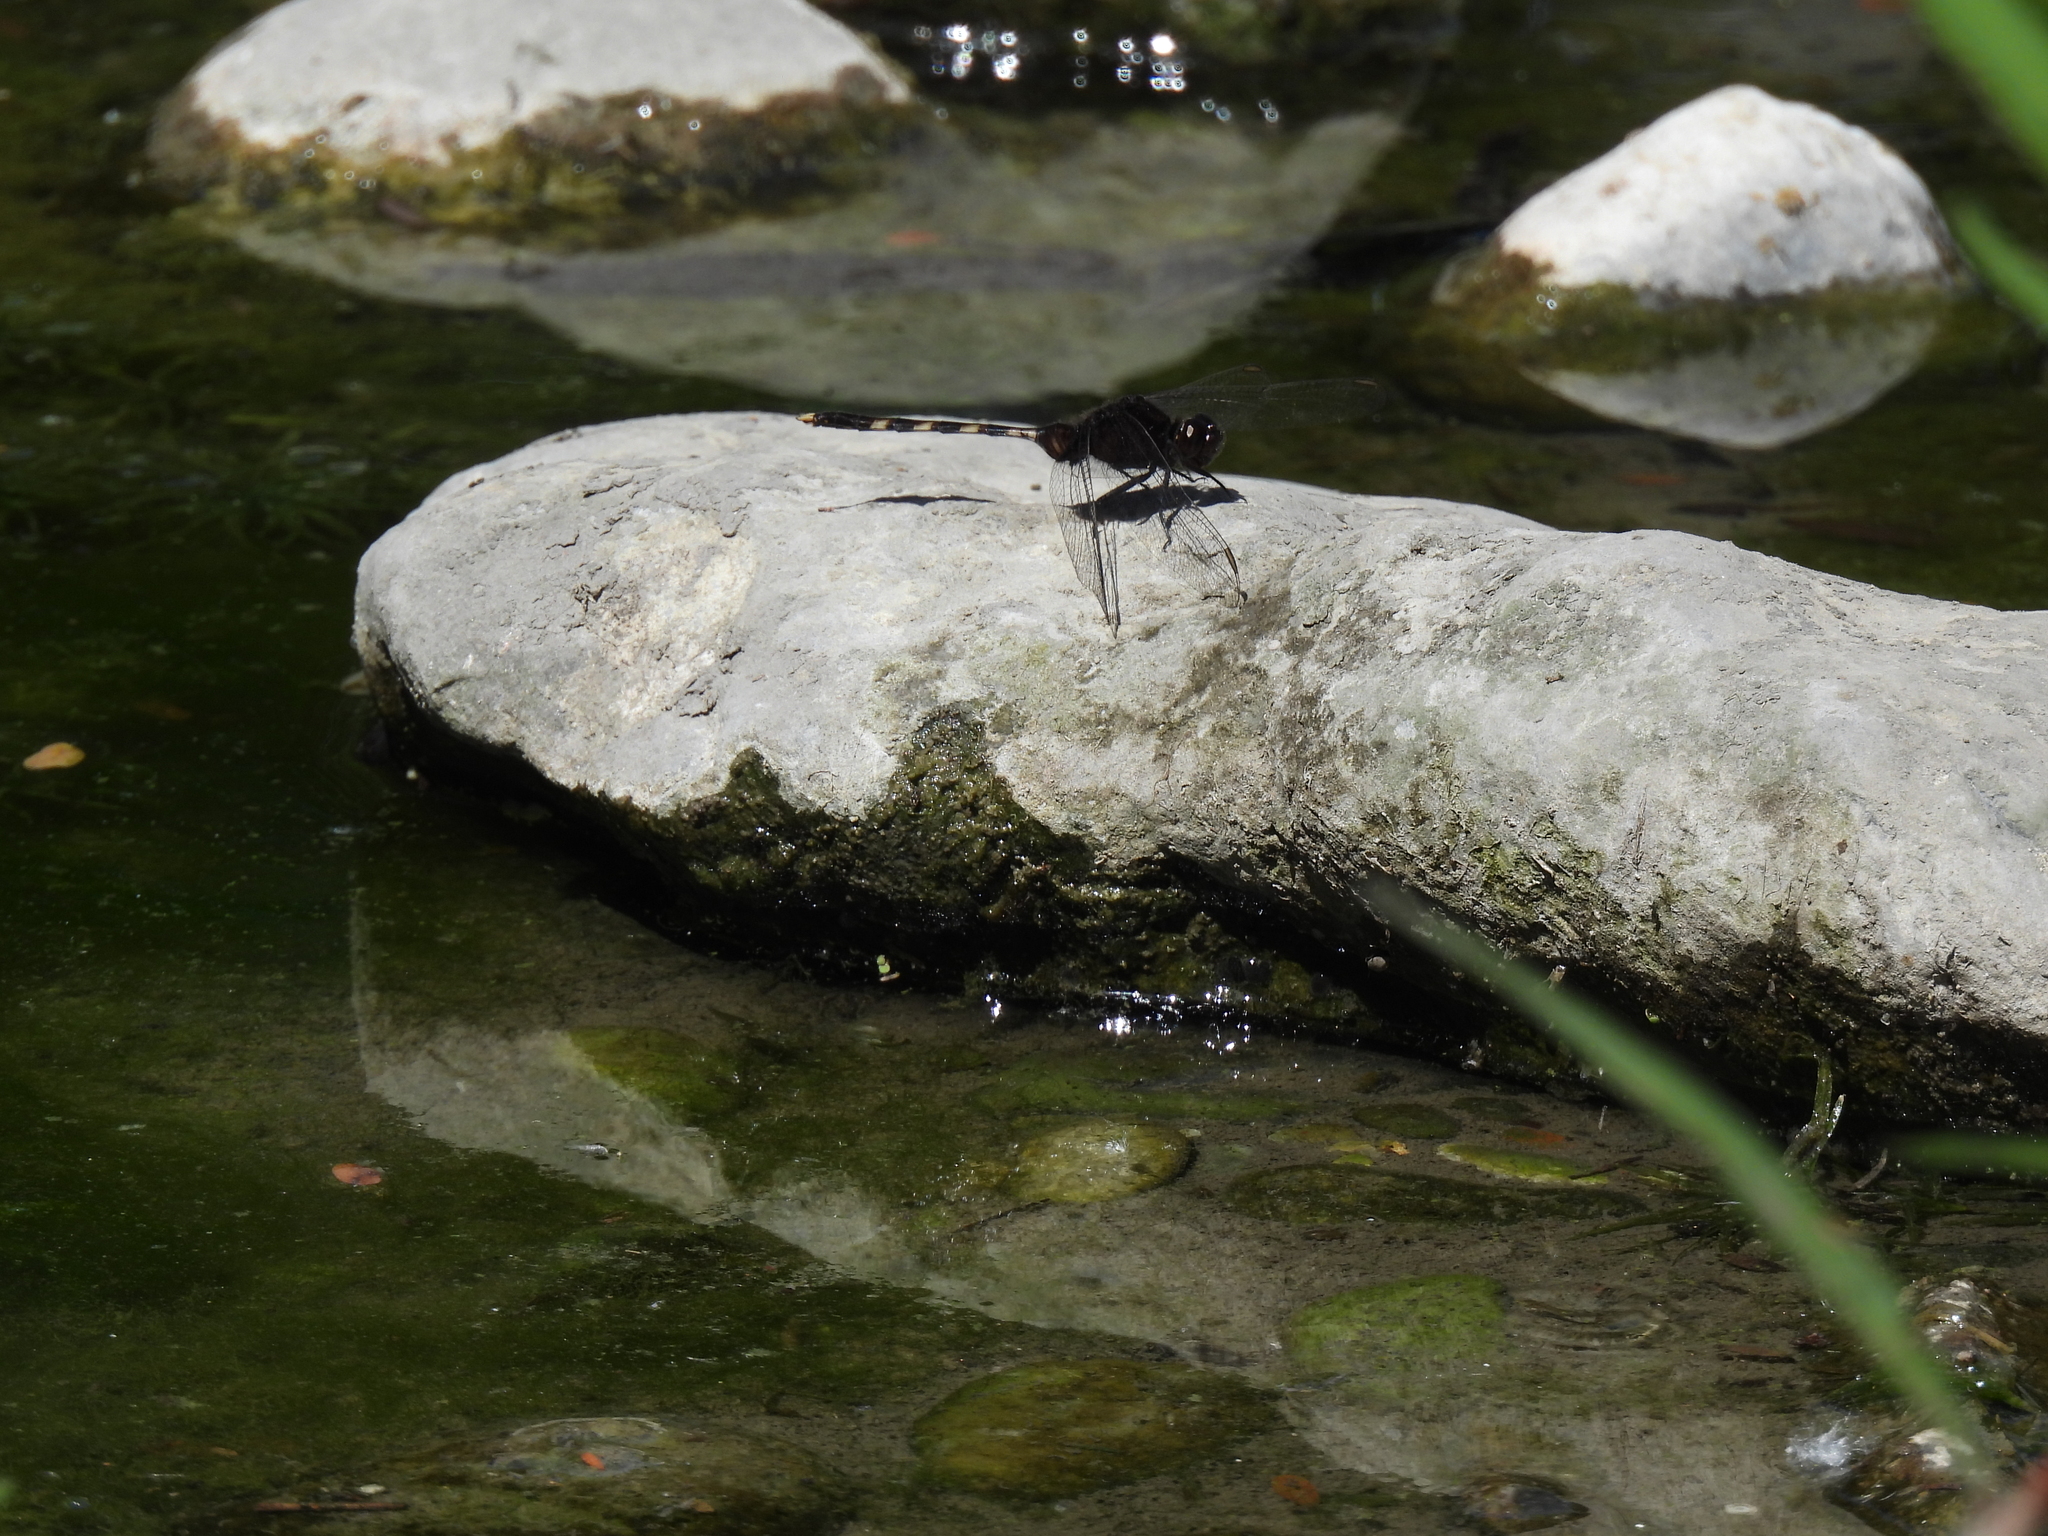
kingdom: Animalia
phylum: Arthropoda
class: Insecta
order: Odonata
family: Libellulidae
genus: Erythemis
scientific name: Erythemis plebeja
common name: Pin-tailed pondhawk
